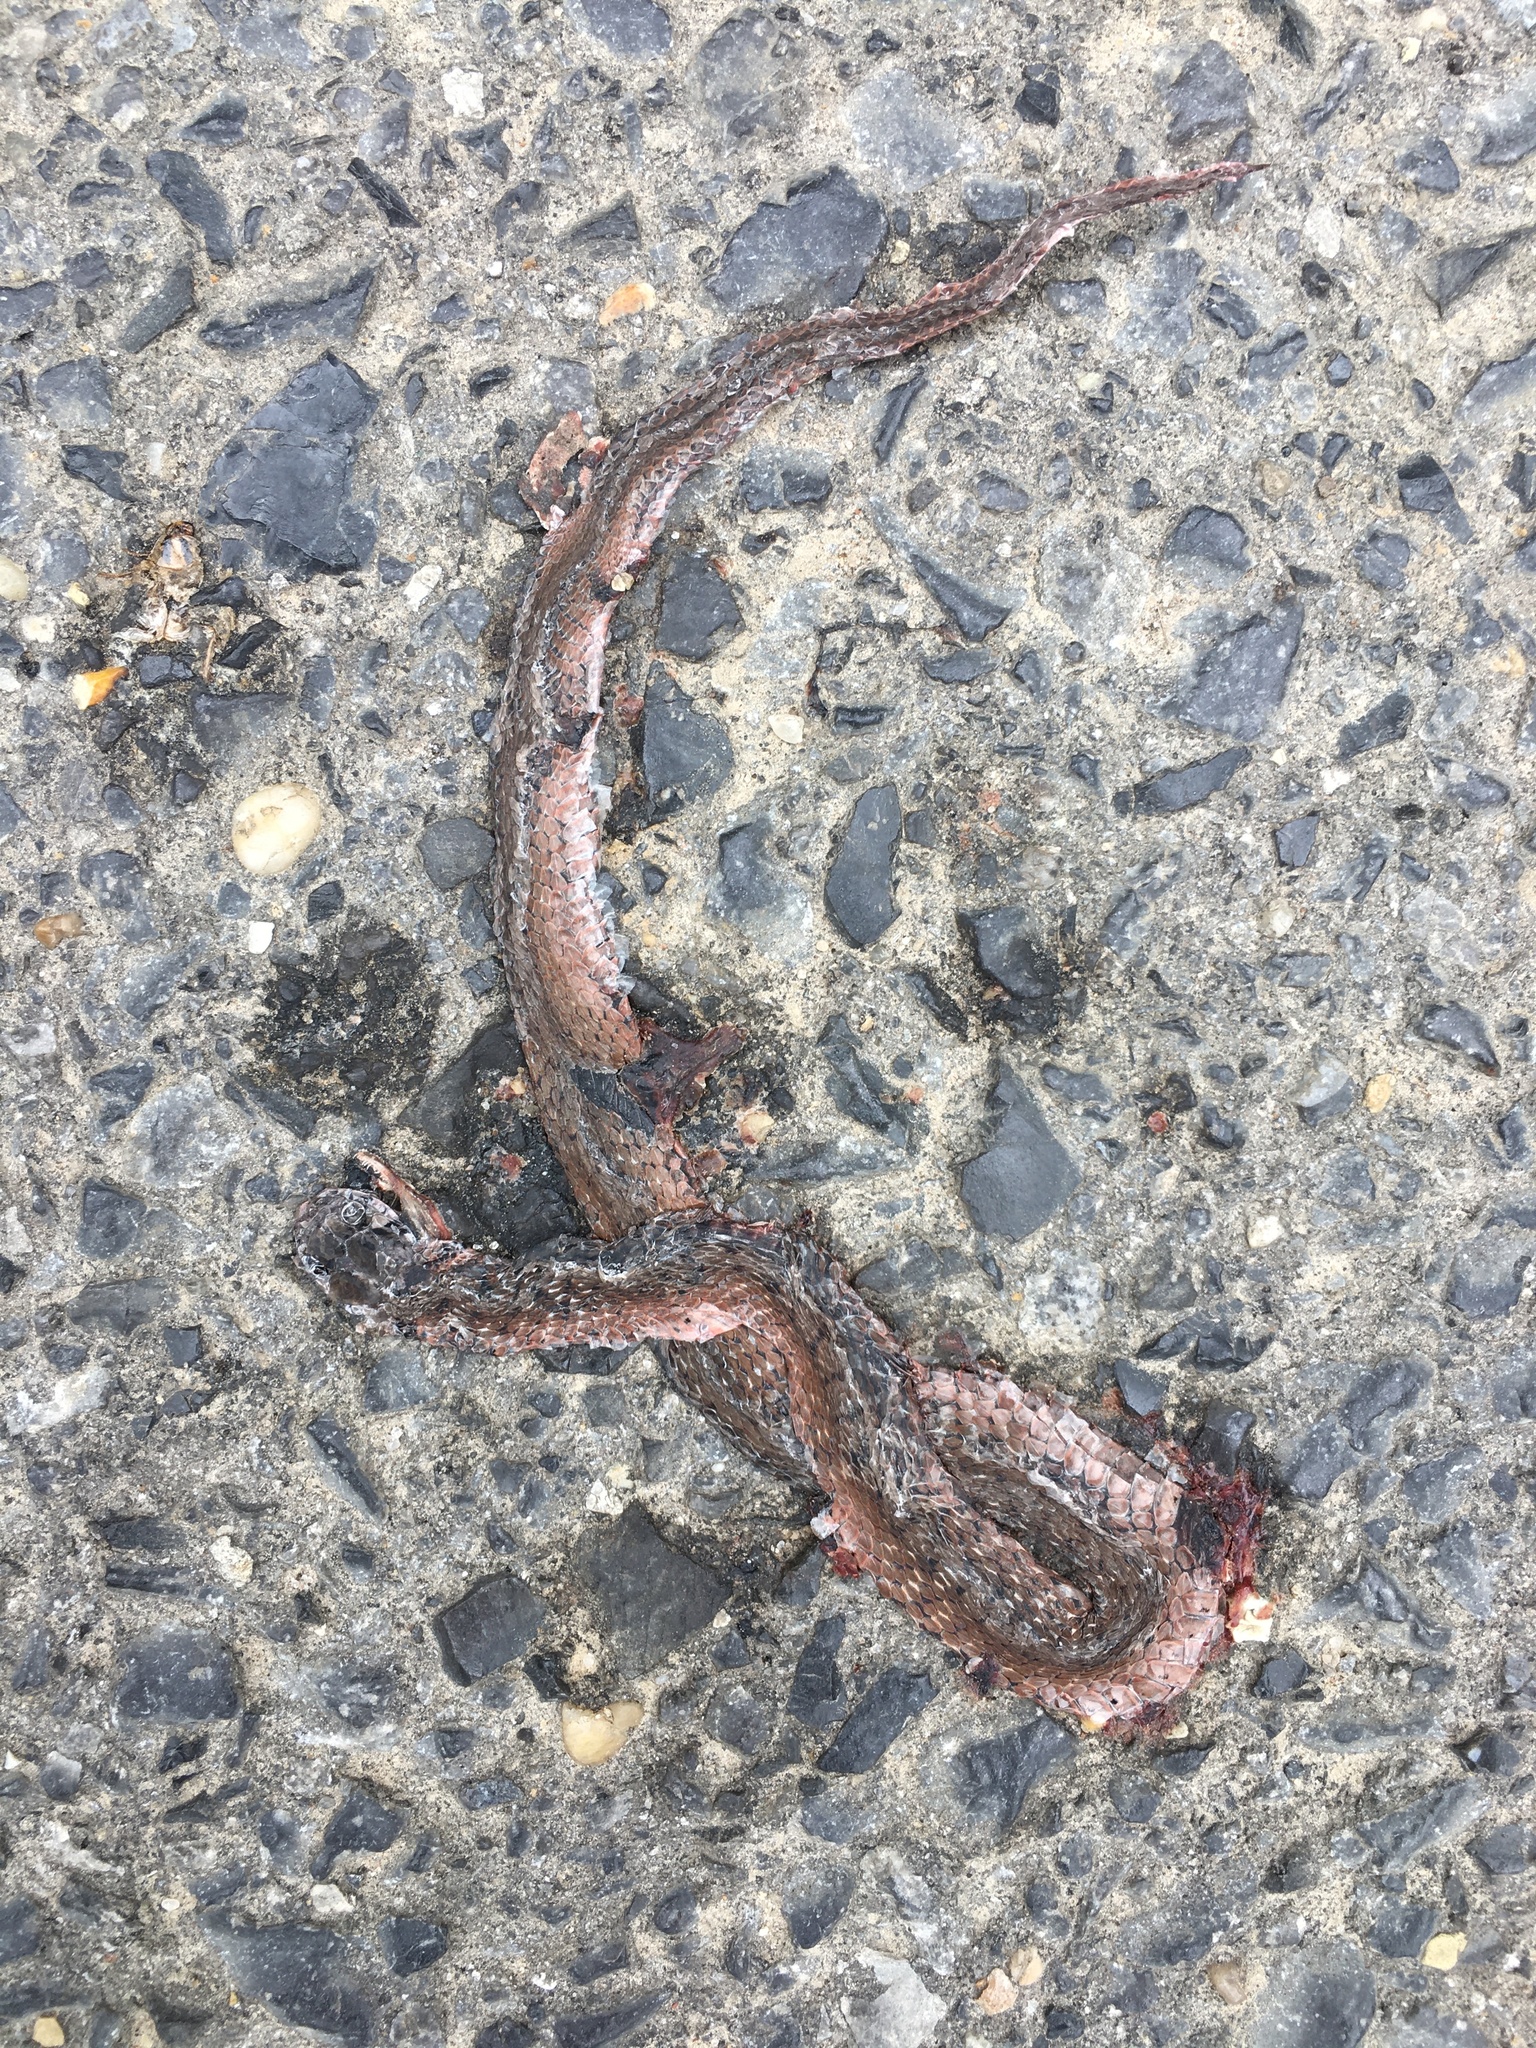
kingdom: Animalia
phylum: Chordata
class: Squamata
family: Colubridae
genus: Storeria
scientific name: Storeria dekayi
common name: (dekay’s) brown snake
